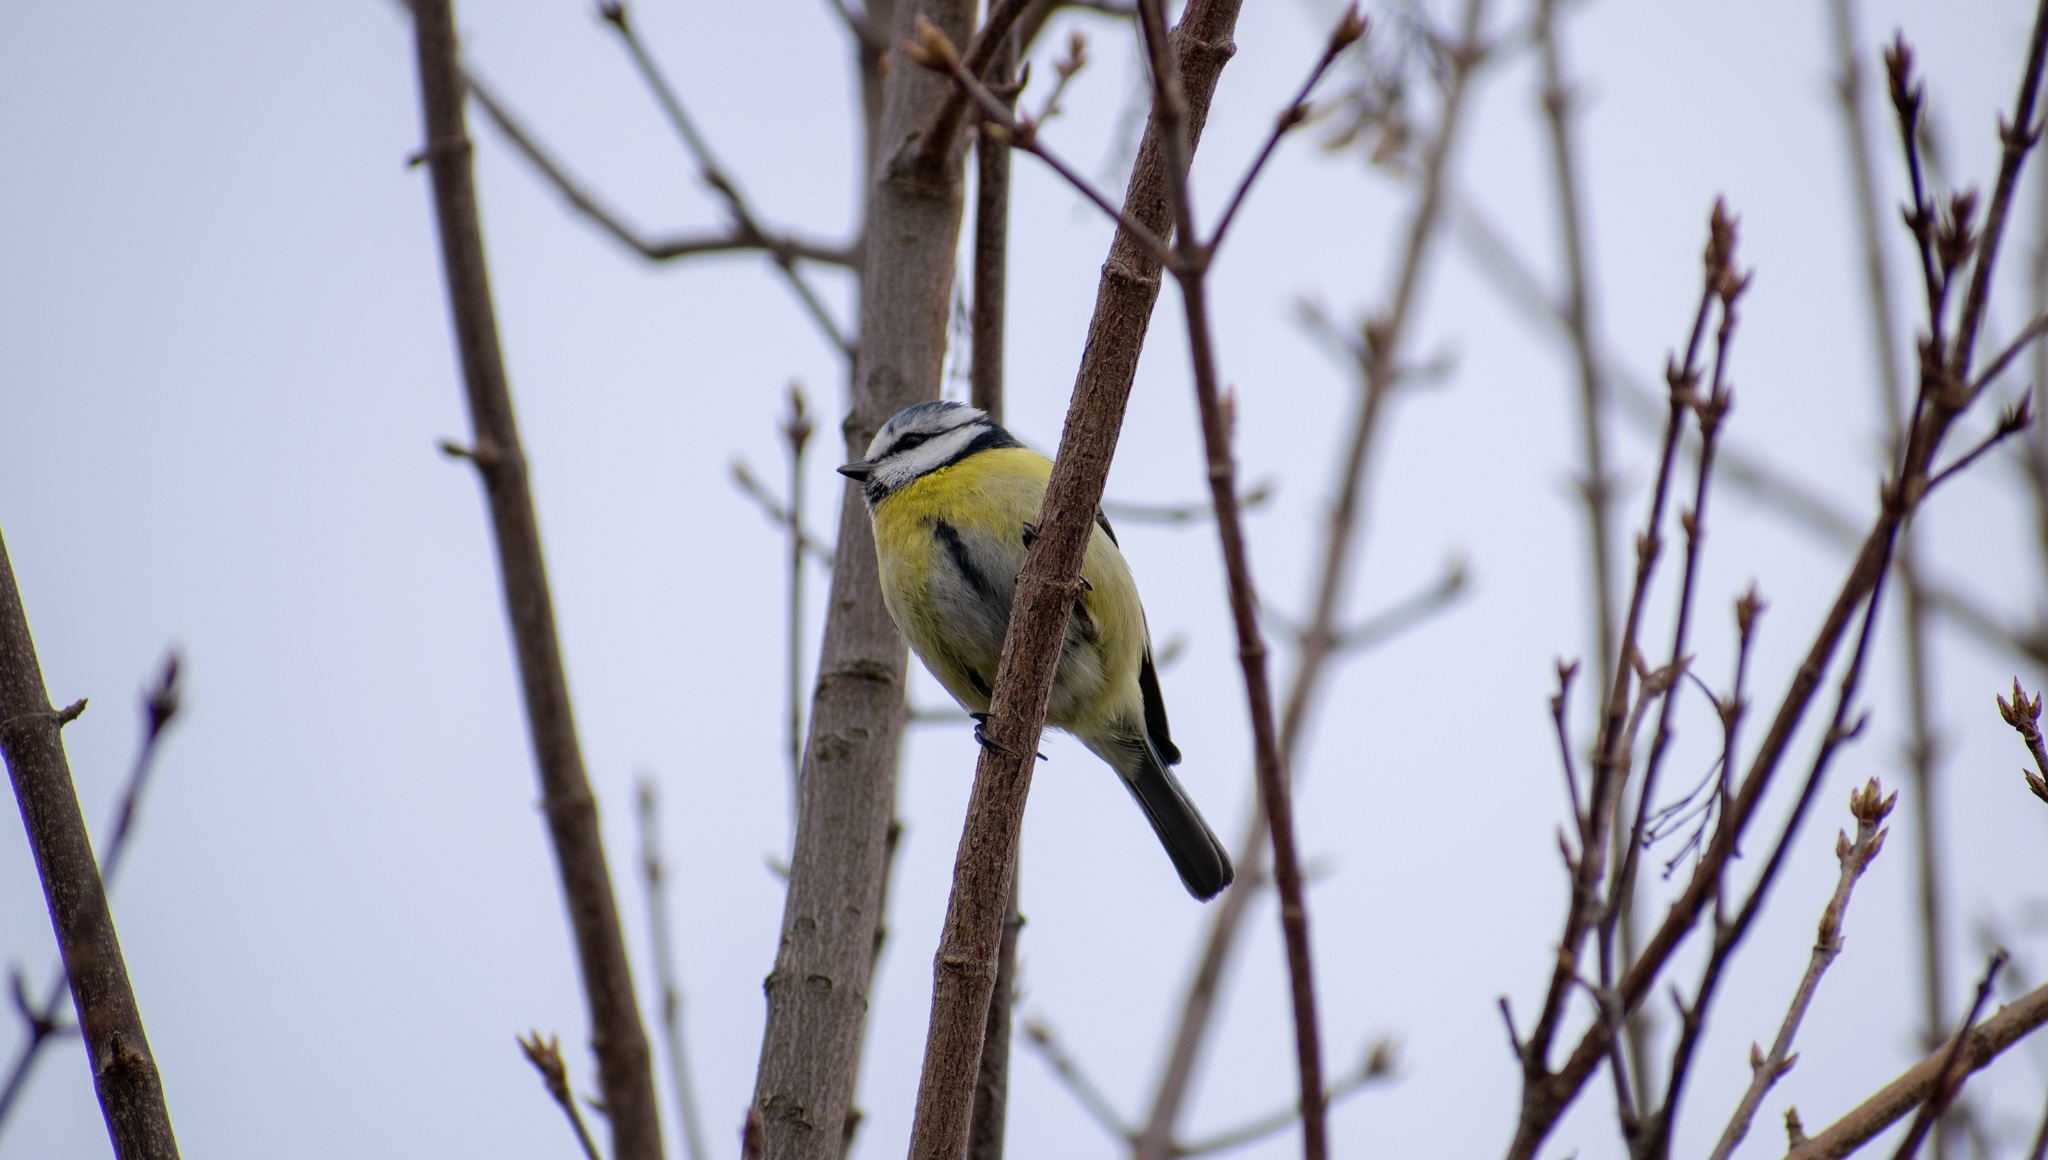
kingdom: Animalia
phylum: Chordata
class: Aves
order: Passeriformes
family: Paridae
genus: Cyanistes
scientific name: Cyanistes caeruleus
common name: Eurasian blue tit
